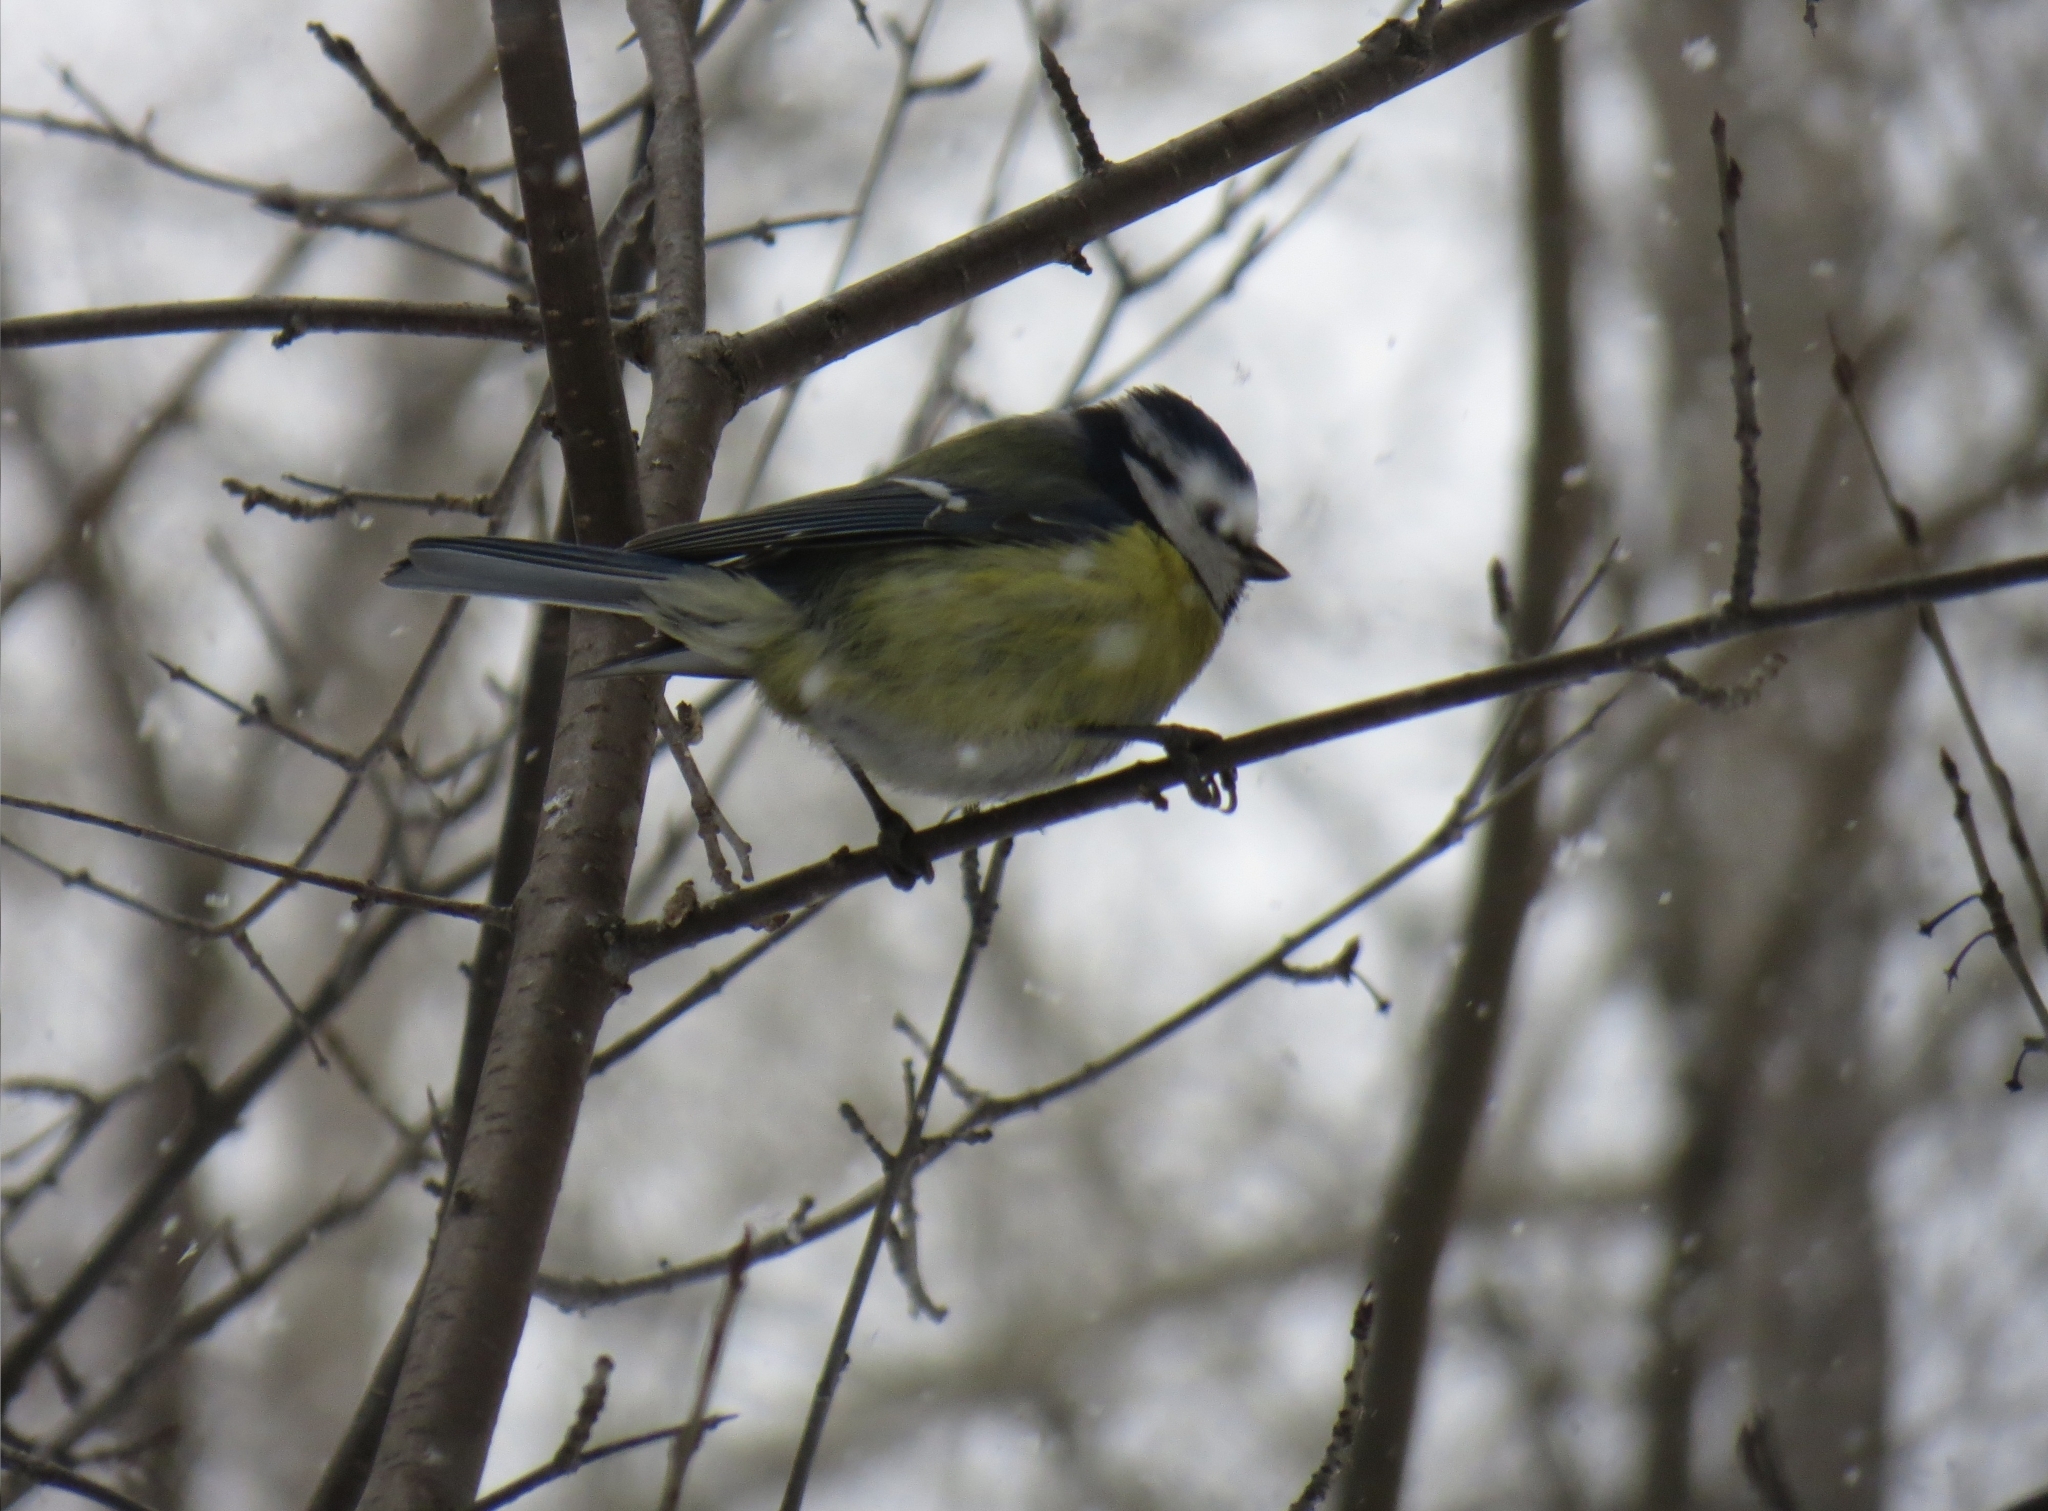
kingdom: Animalia
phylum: Chordata
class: Aves
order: Passeriformes
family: Paridae
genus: Cyanistes
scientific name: Cyanistes caeruleus
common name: Eurasian blue tit
